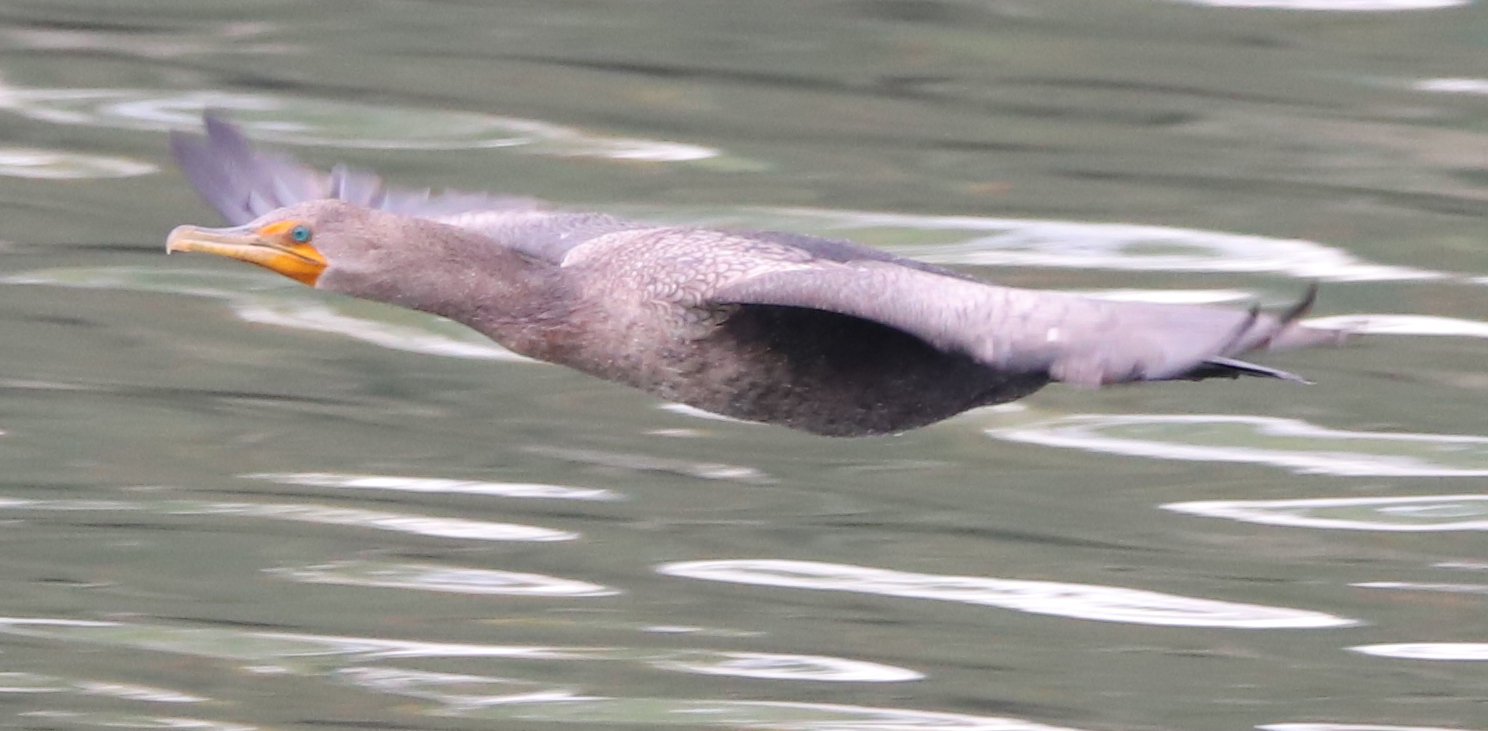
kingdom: Animalia
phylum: Chordata
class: Aves
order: Suliformes
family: Phalacrocoracidae
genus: Phalacrocorax
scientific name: Phalacrocorax auritus
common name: Double-crested cormorant
